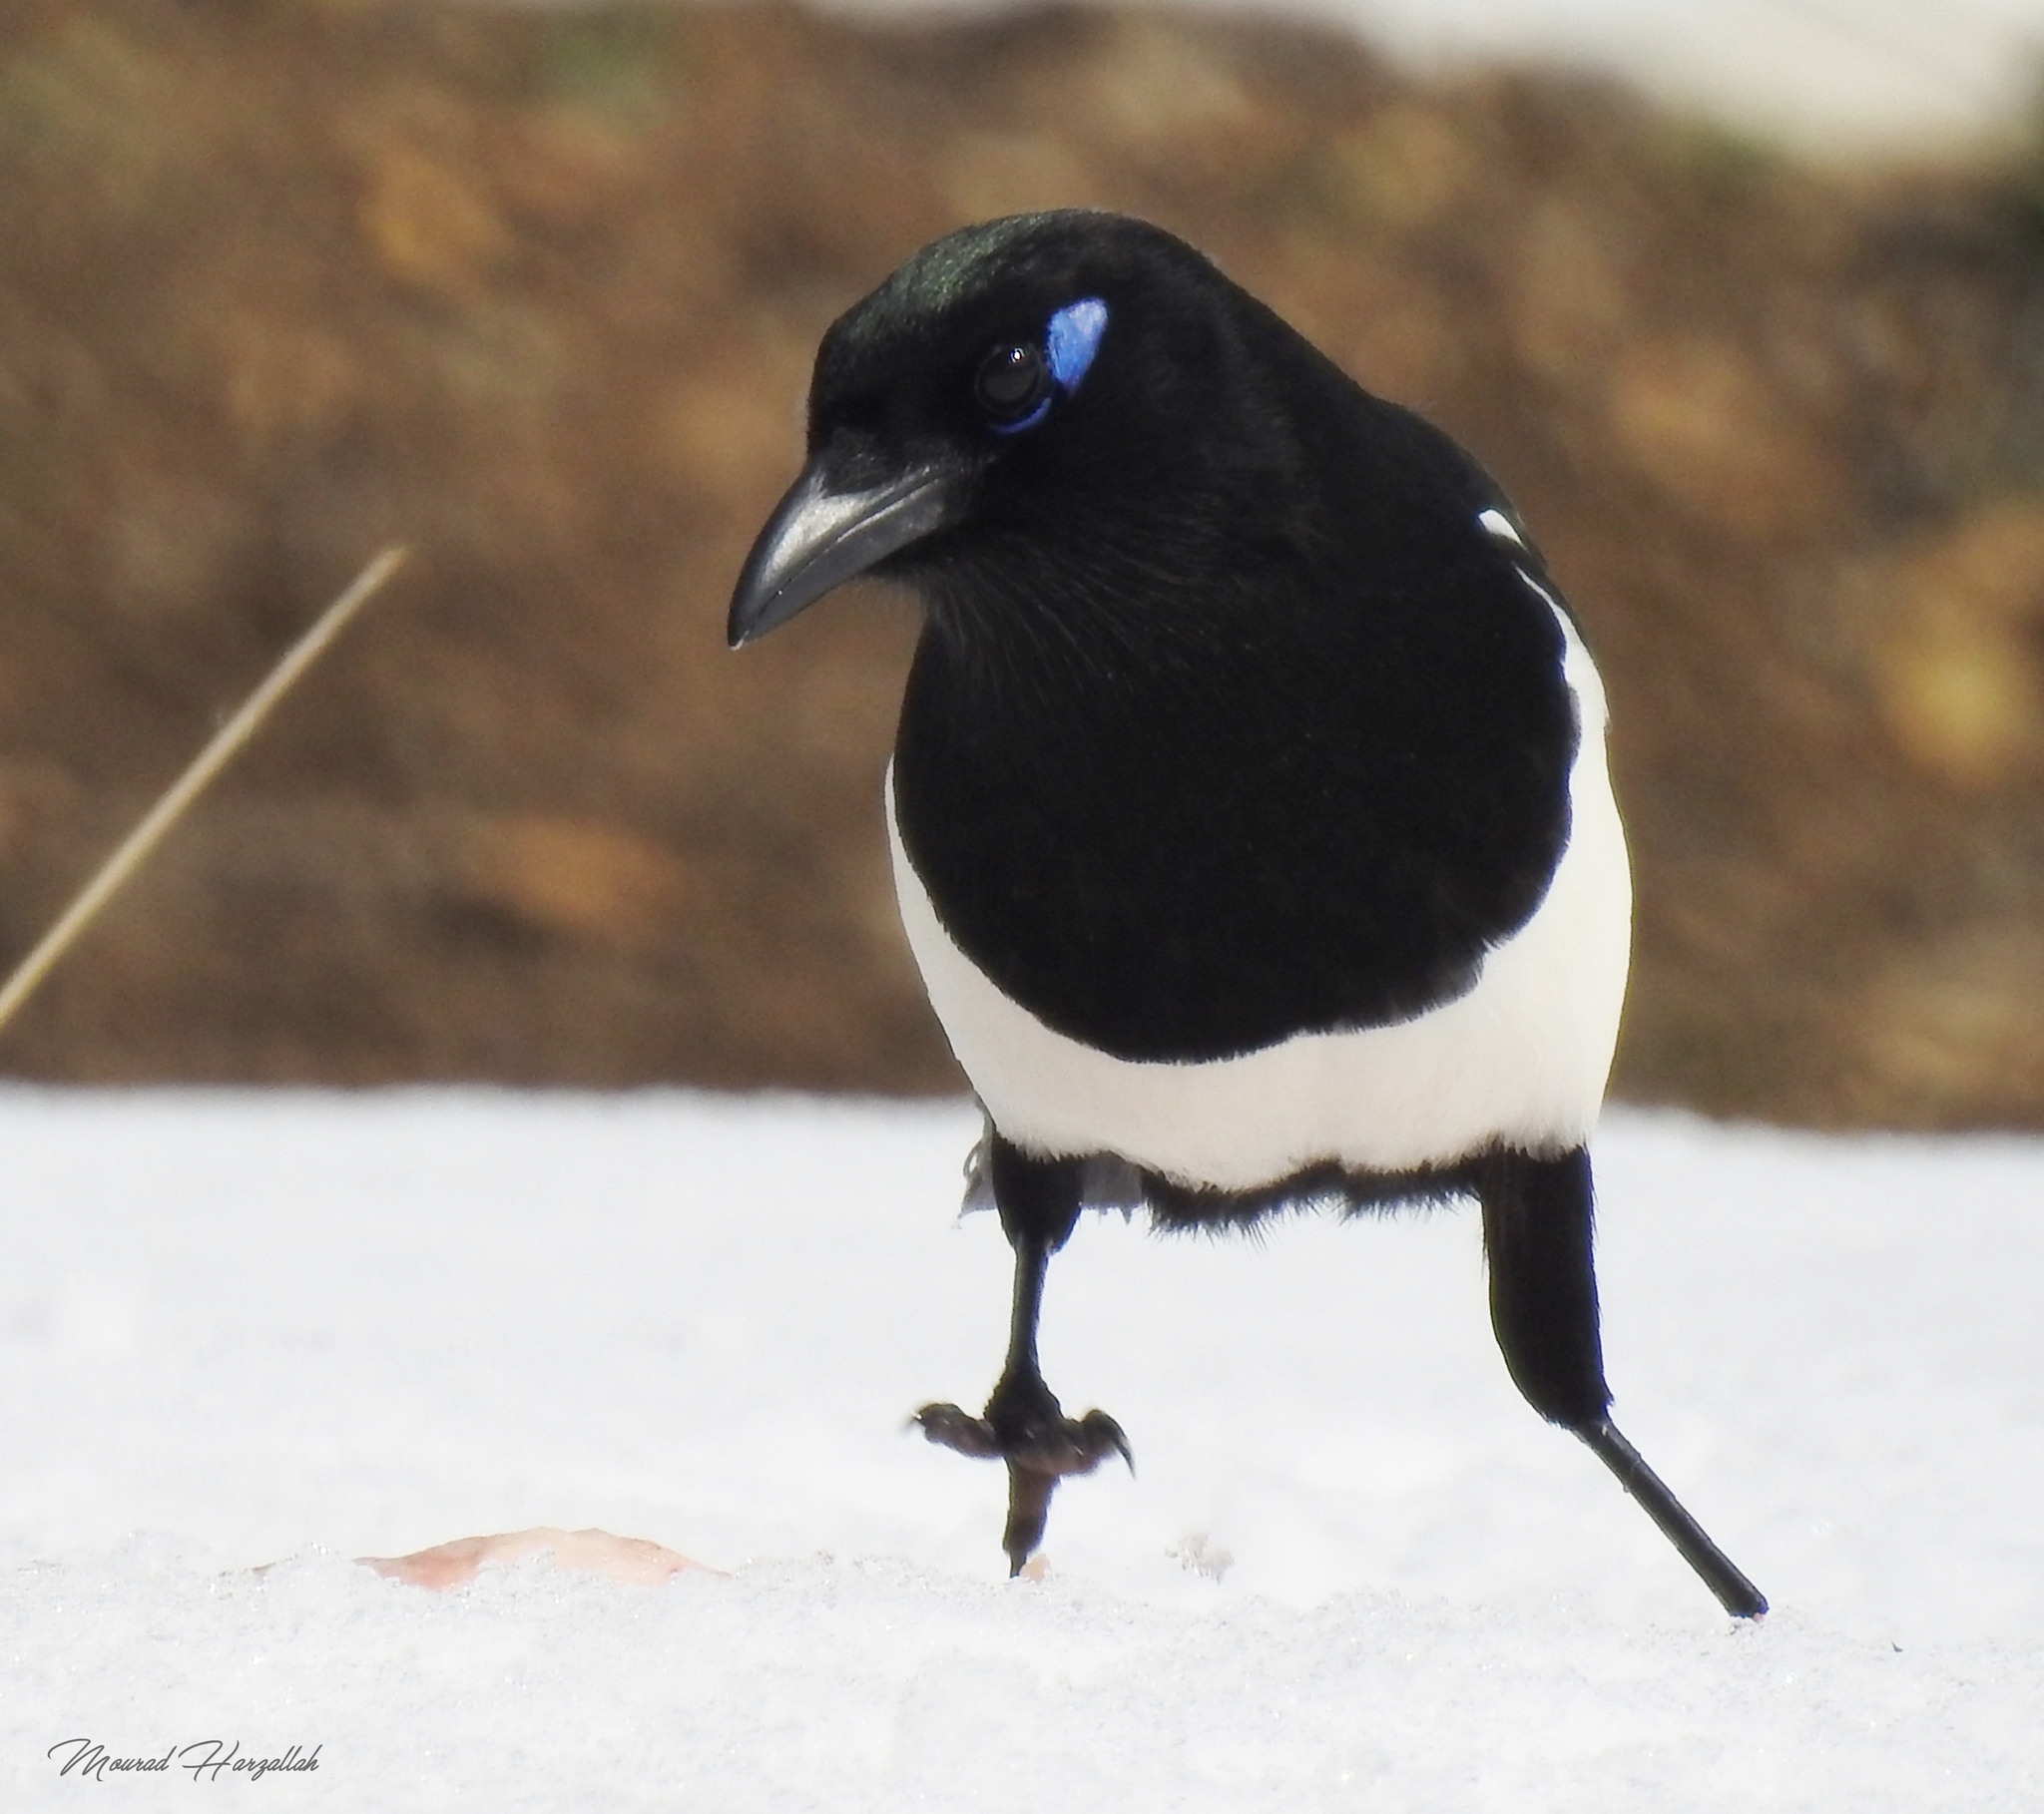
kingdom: Animalia
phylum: Chordata
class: Aves
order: Passeriformes
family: Corvidae
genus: Pica
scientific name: Pica mauritanica
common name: Maghreb magpie
